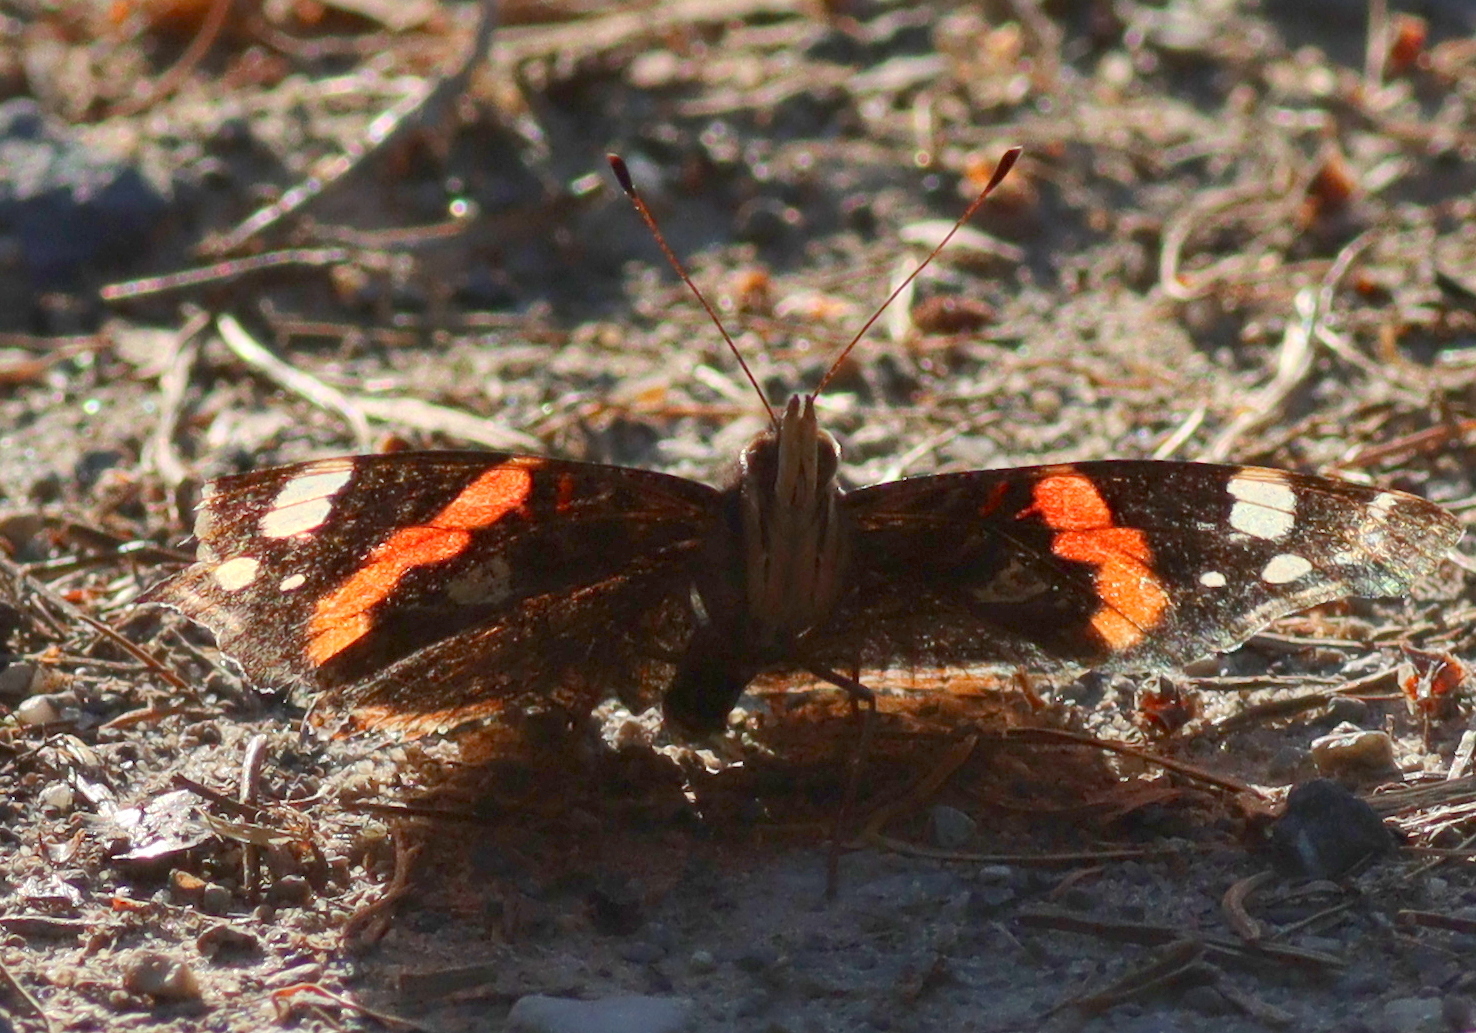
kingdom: Animalia
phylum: Arthropoda
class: Insecta
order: Lepidoptera
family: Nymphalidae
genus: Vanessa
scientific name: Vanessa atalanta
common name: Red admiral
